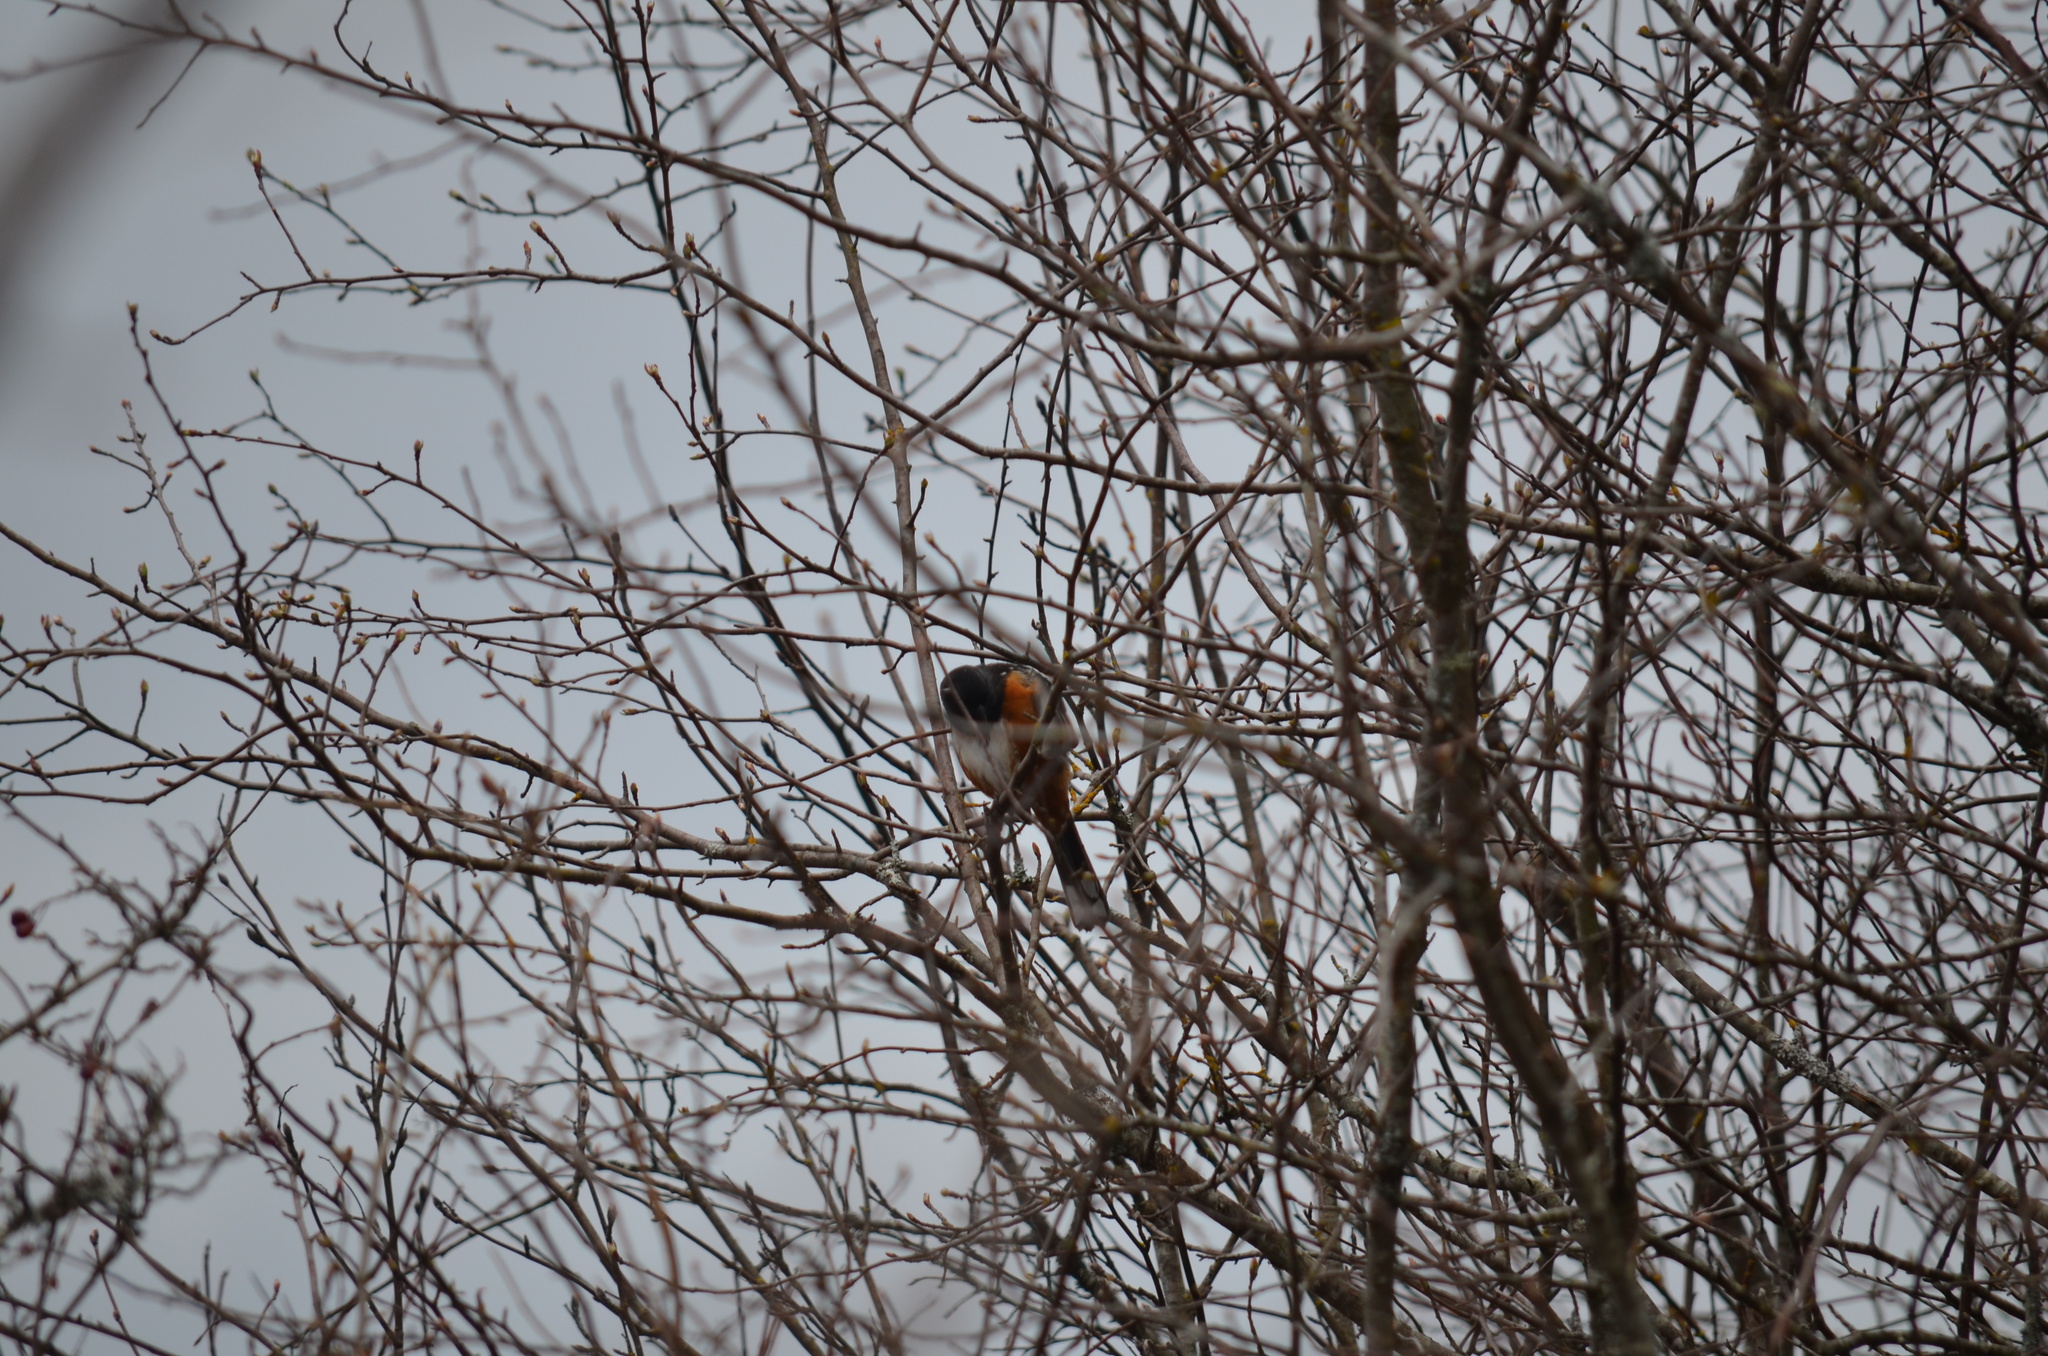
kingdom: Animalia
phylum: Chordata
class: Aves
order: Passeriformes
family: Passerellidae
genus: Pipilo
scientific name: Pipilo maculatus
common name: Spotted towhee
